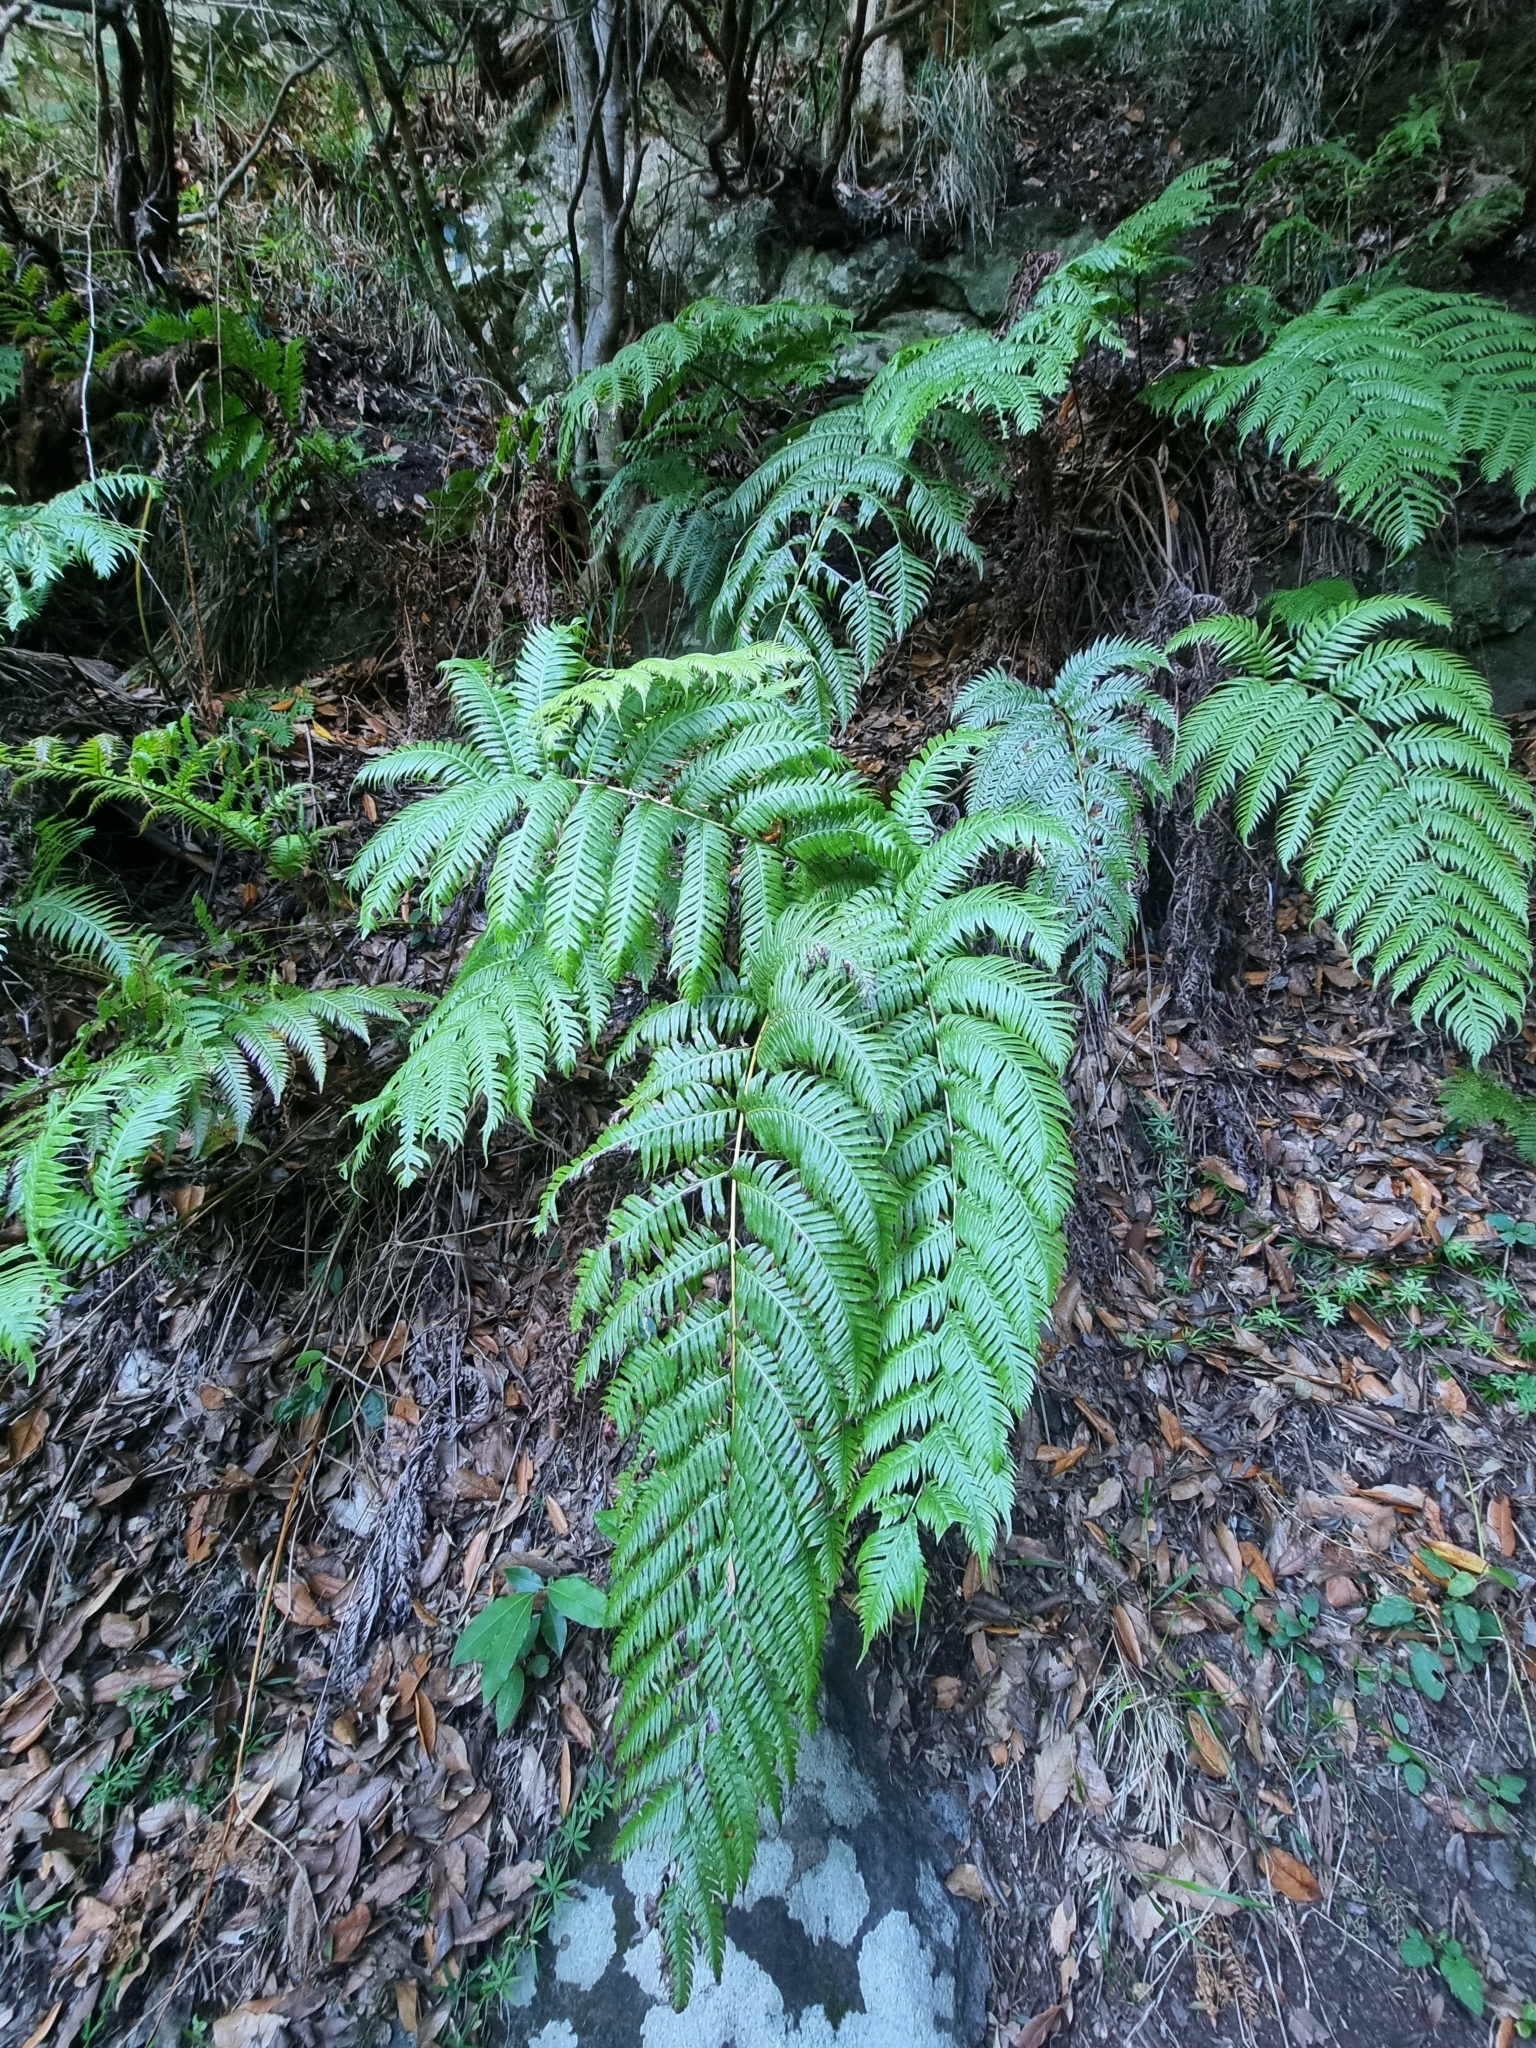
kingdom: Plantae
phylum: Tracheophyta
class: Polypodiopsida
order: Polypodiales
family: Blechnaceae
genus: Woodwardia
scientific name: Woodwardia radicans
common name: Rooting chainfern
